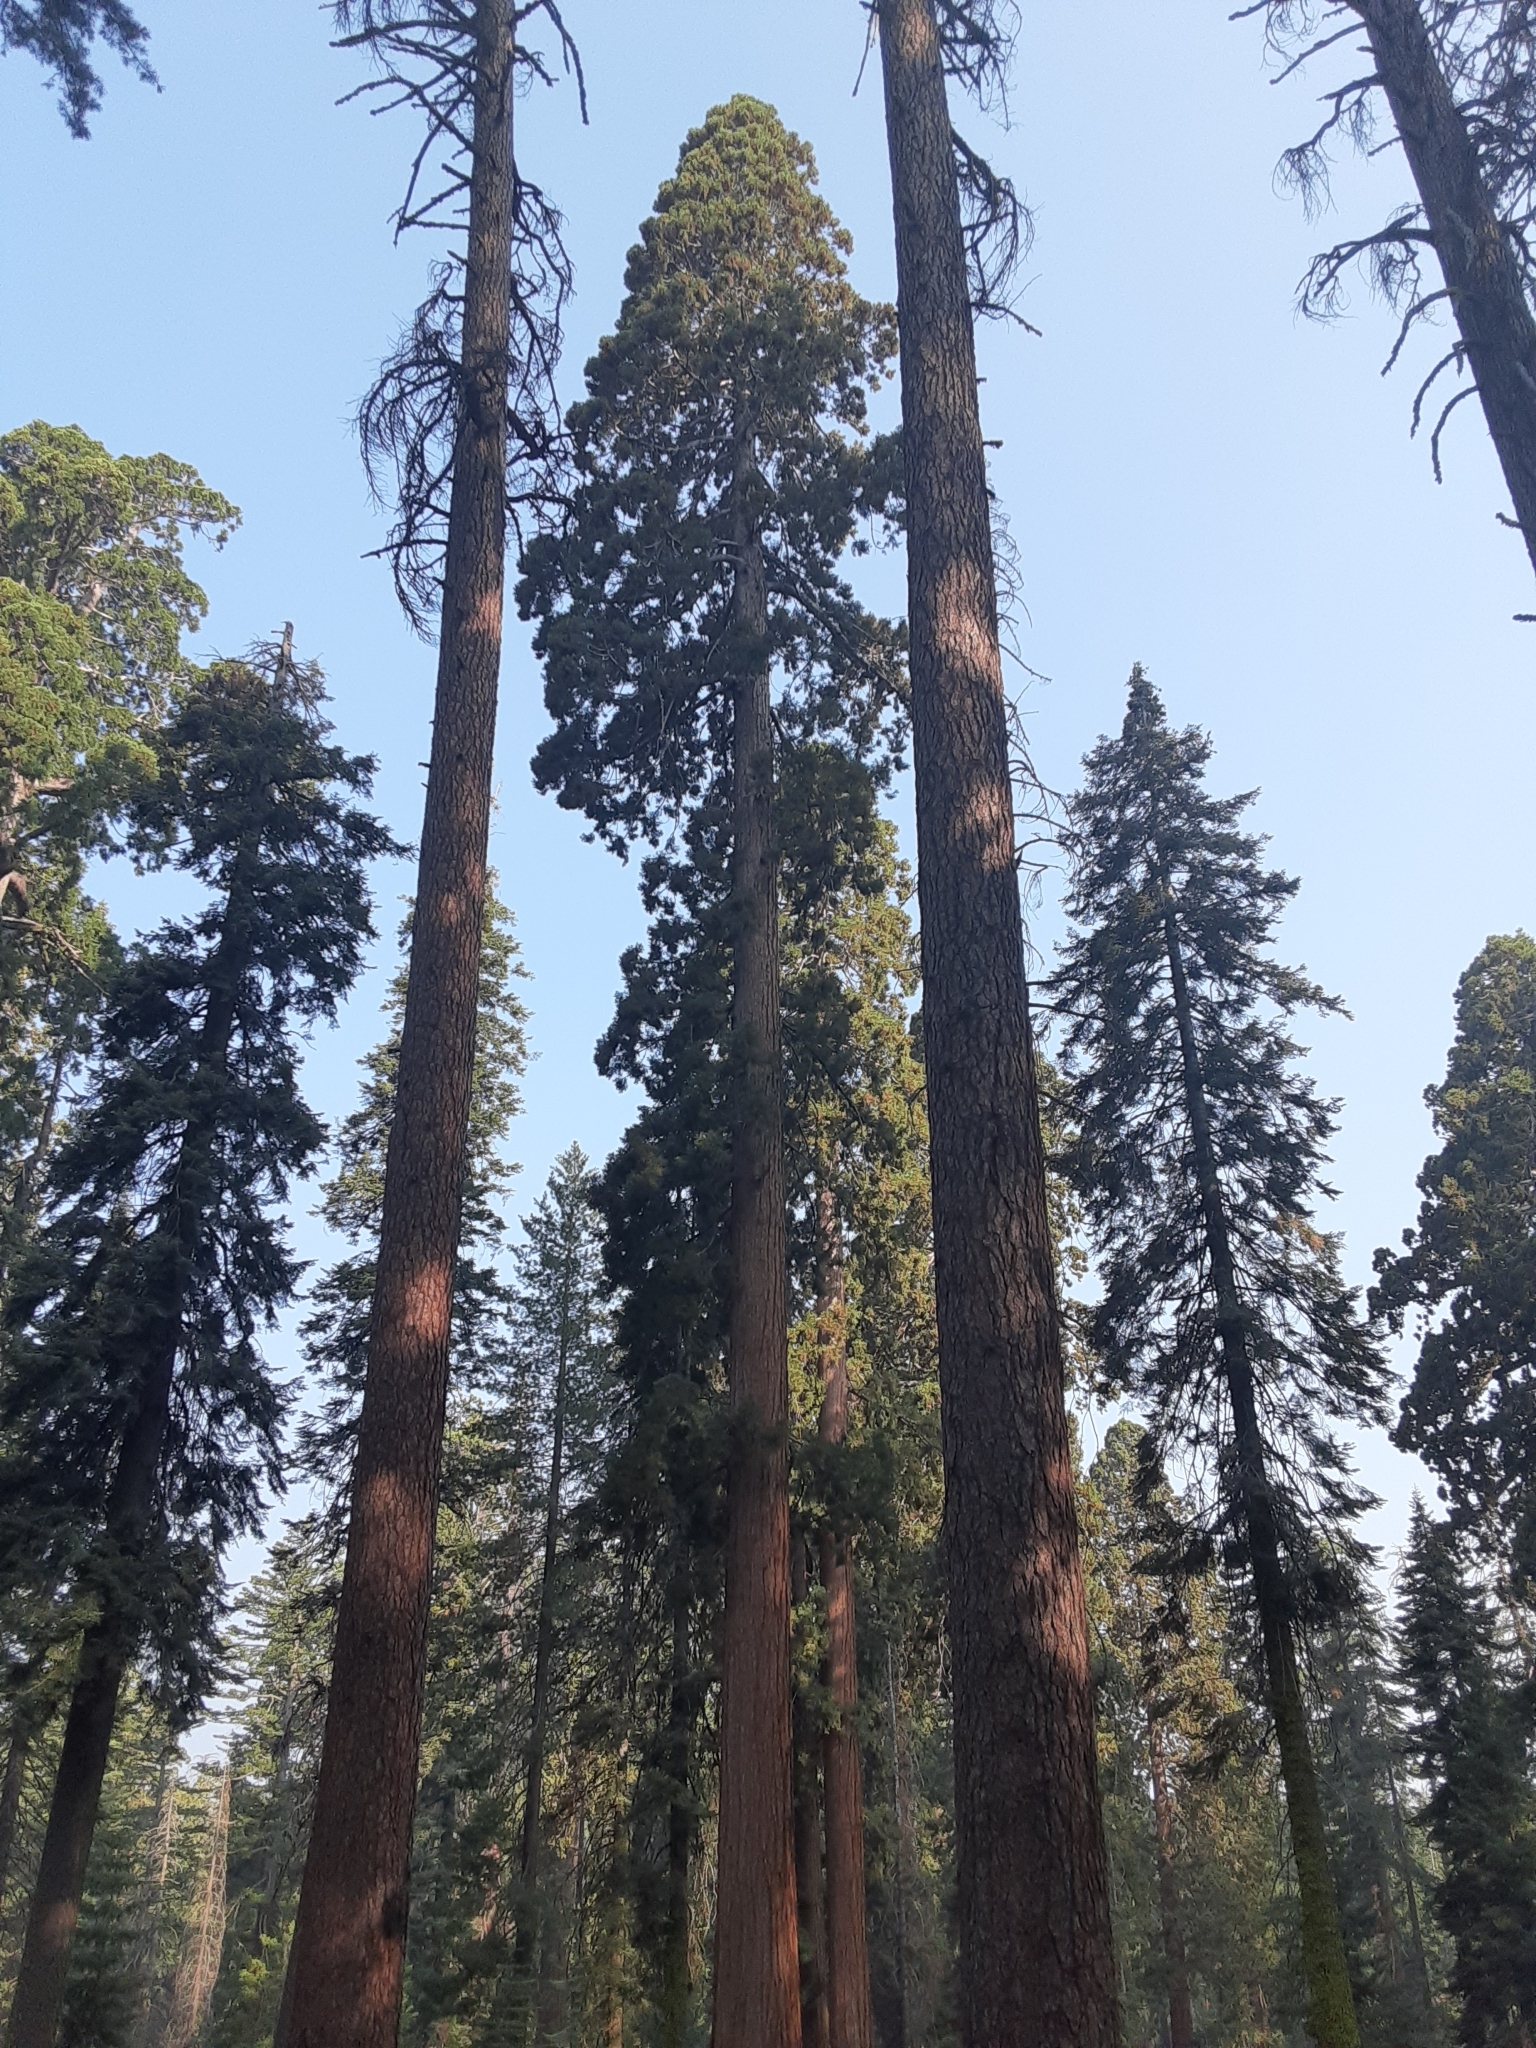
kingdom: Plantae
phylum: Tracheophyta
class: Pinopsida
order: Pinales
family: Cupressaceae
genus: Sequoiadendron
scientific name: Sequoiadendron giganteum
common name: Wellingtonia
